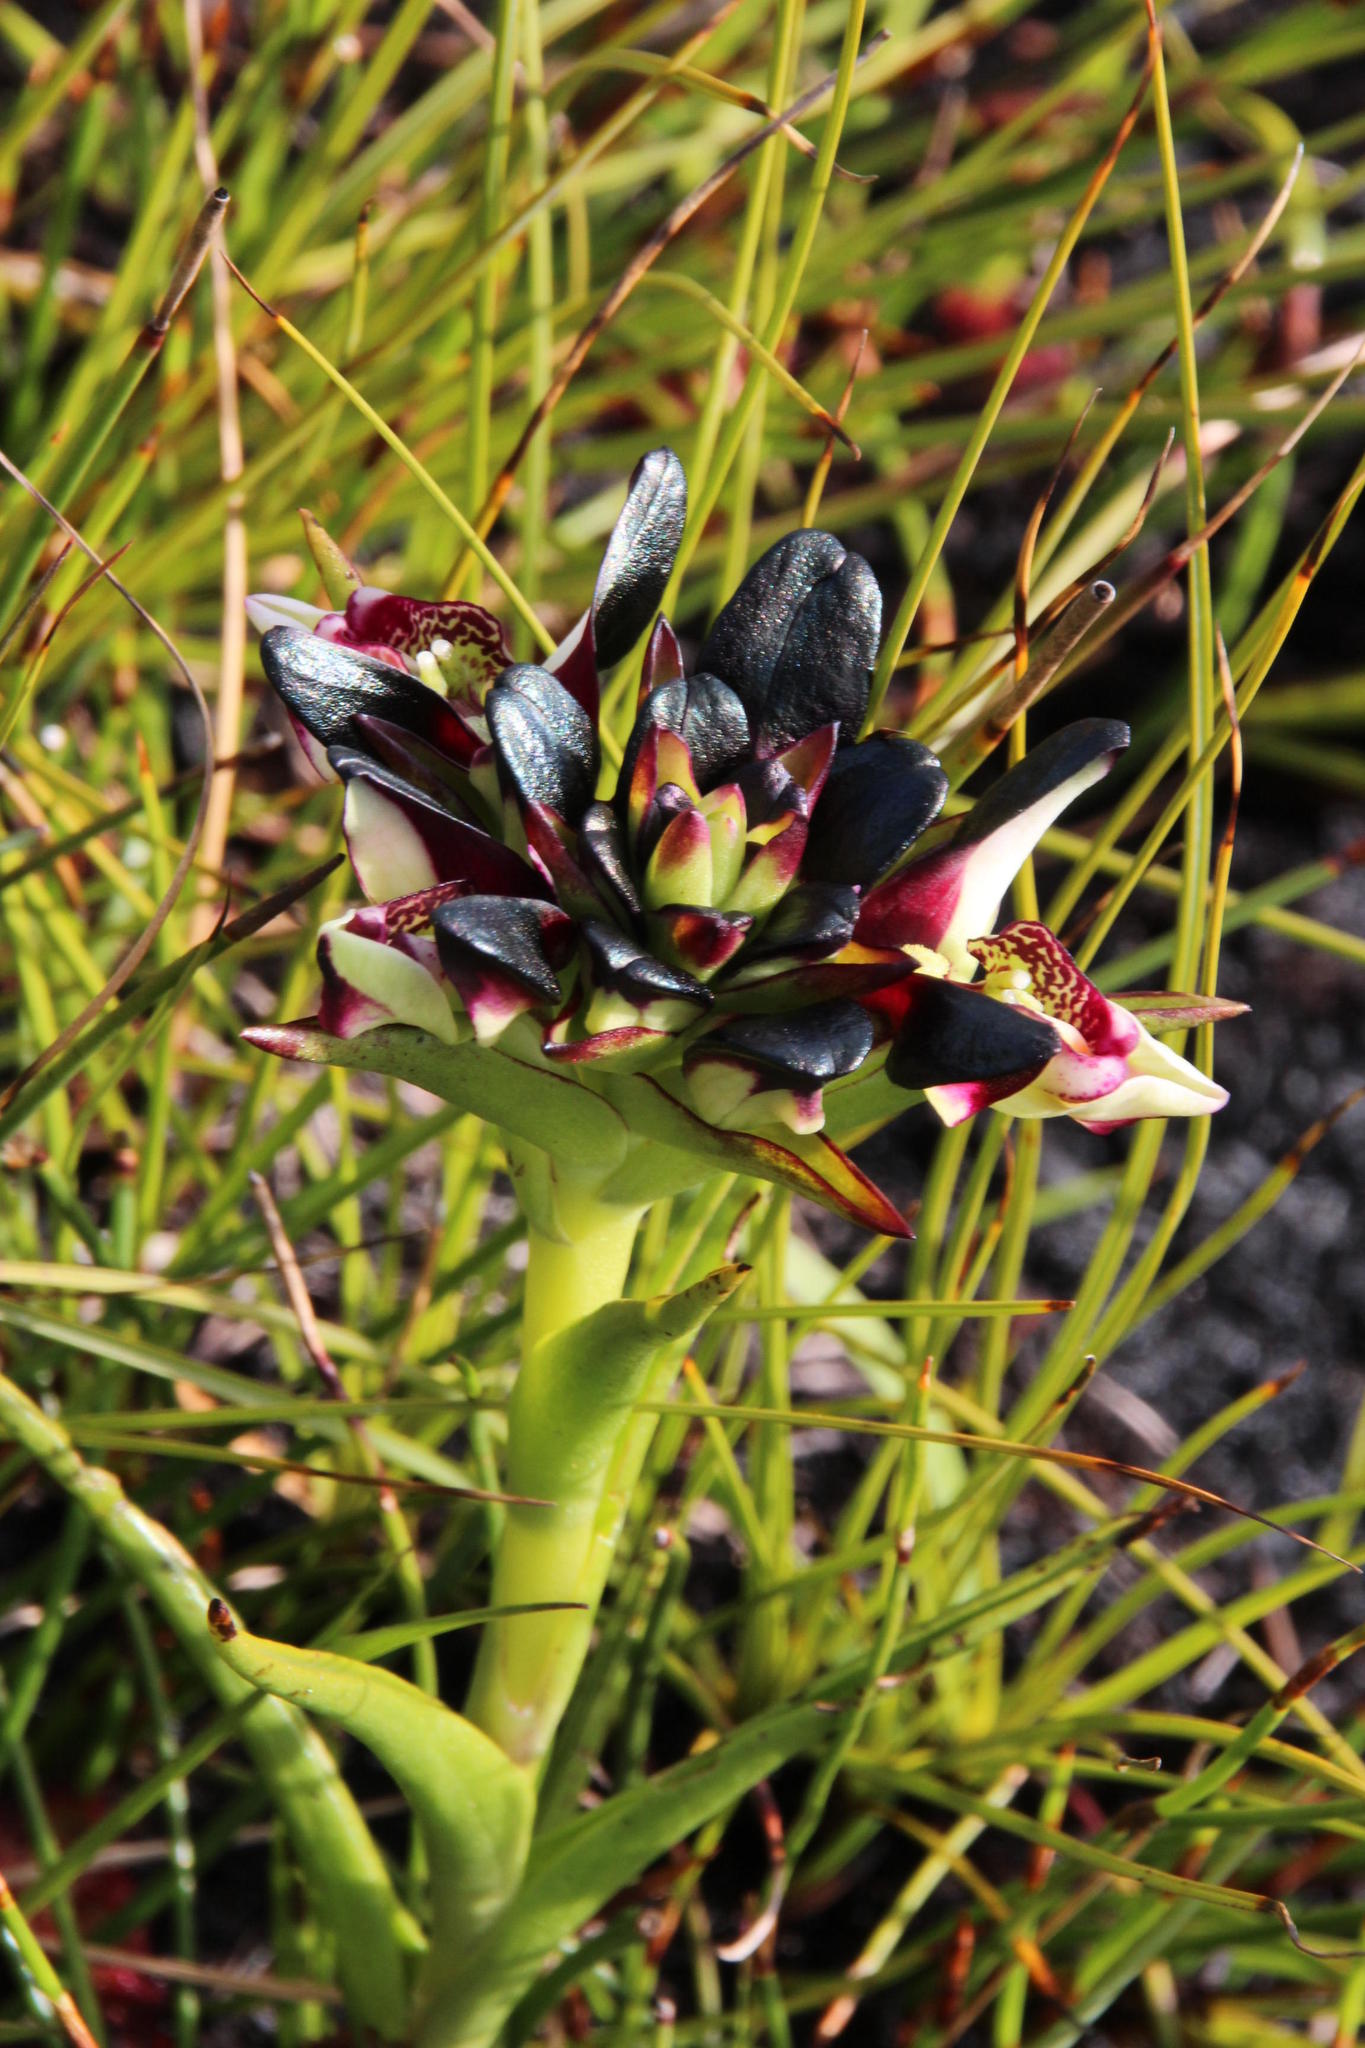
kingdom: Plantae
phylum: Tracheophyta
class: Liliopsida
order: Asparagales
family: Orchidaceae
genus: Disa
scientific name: Disa atricapilla
